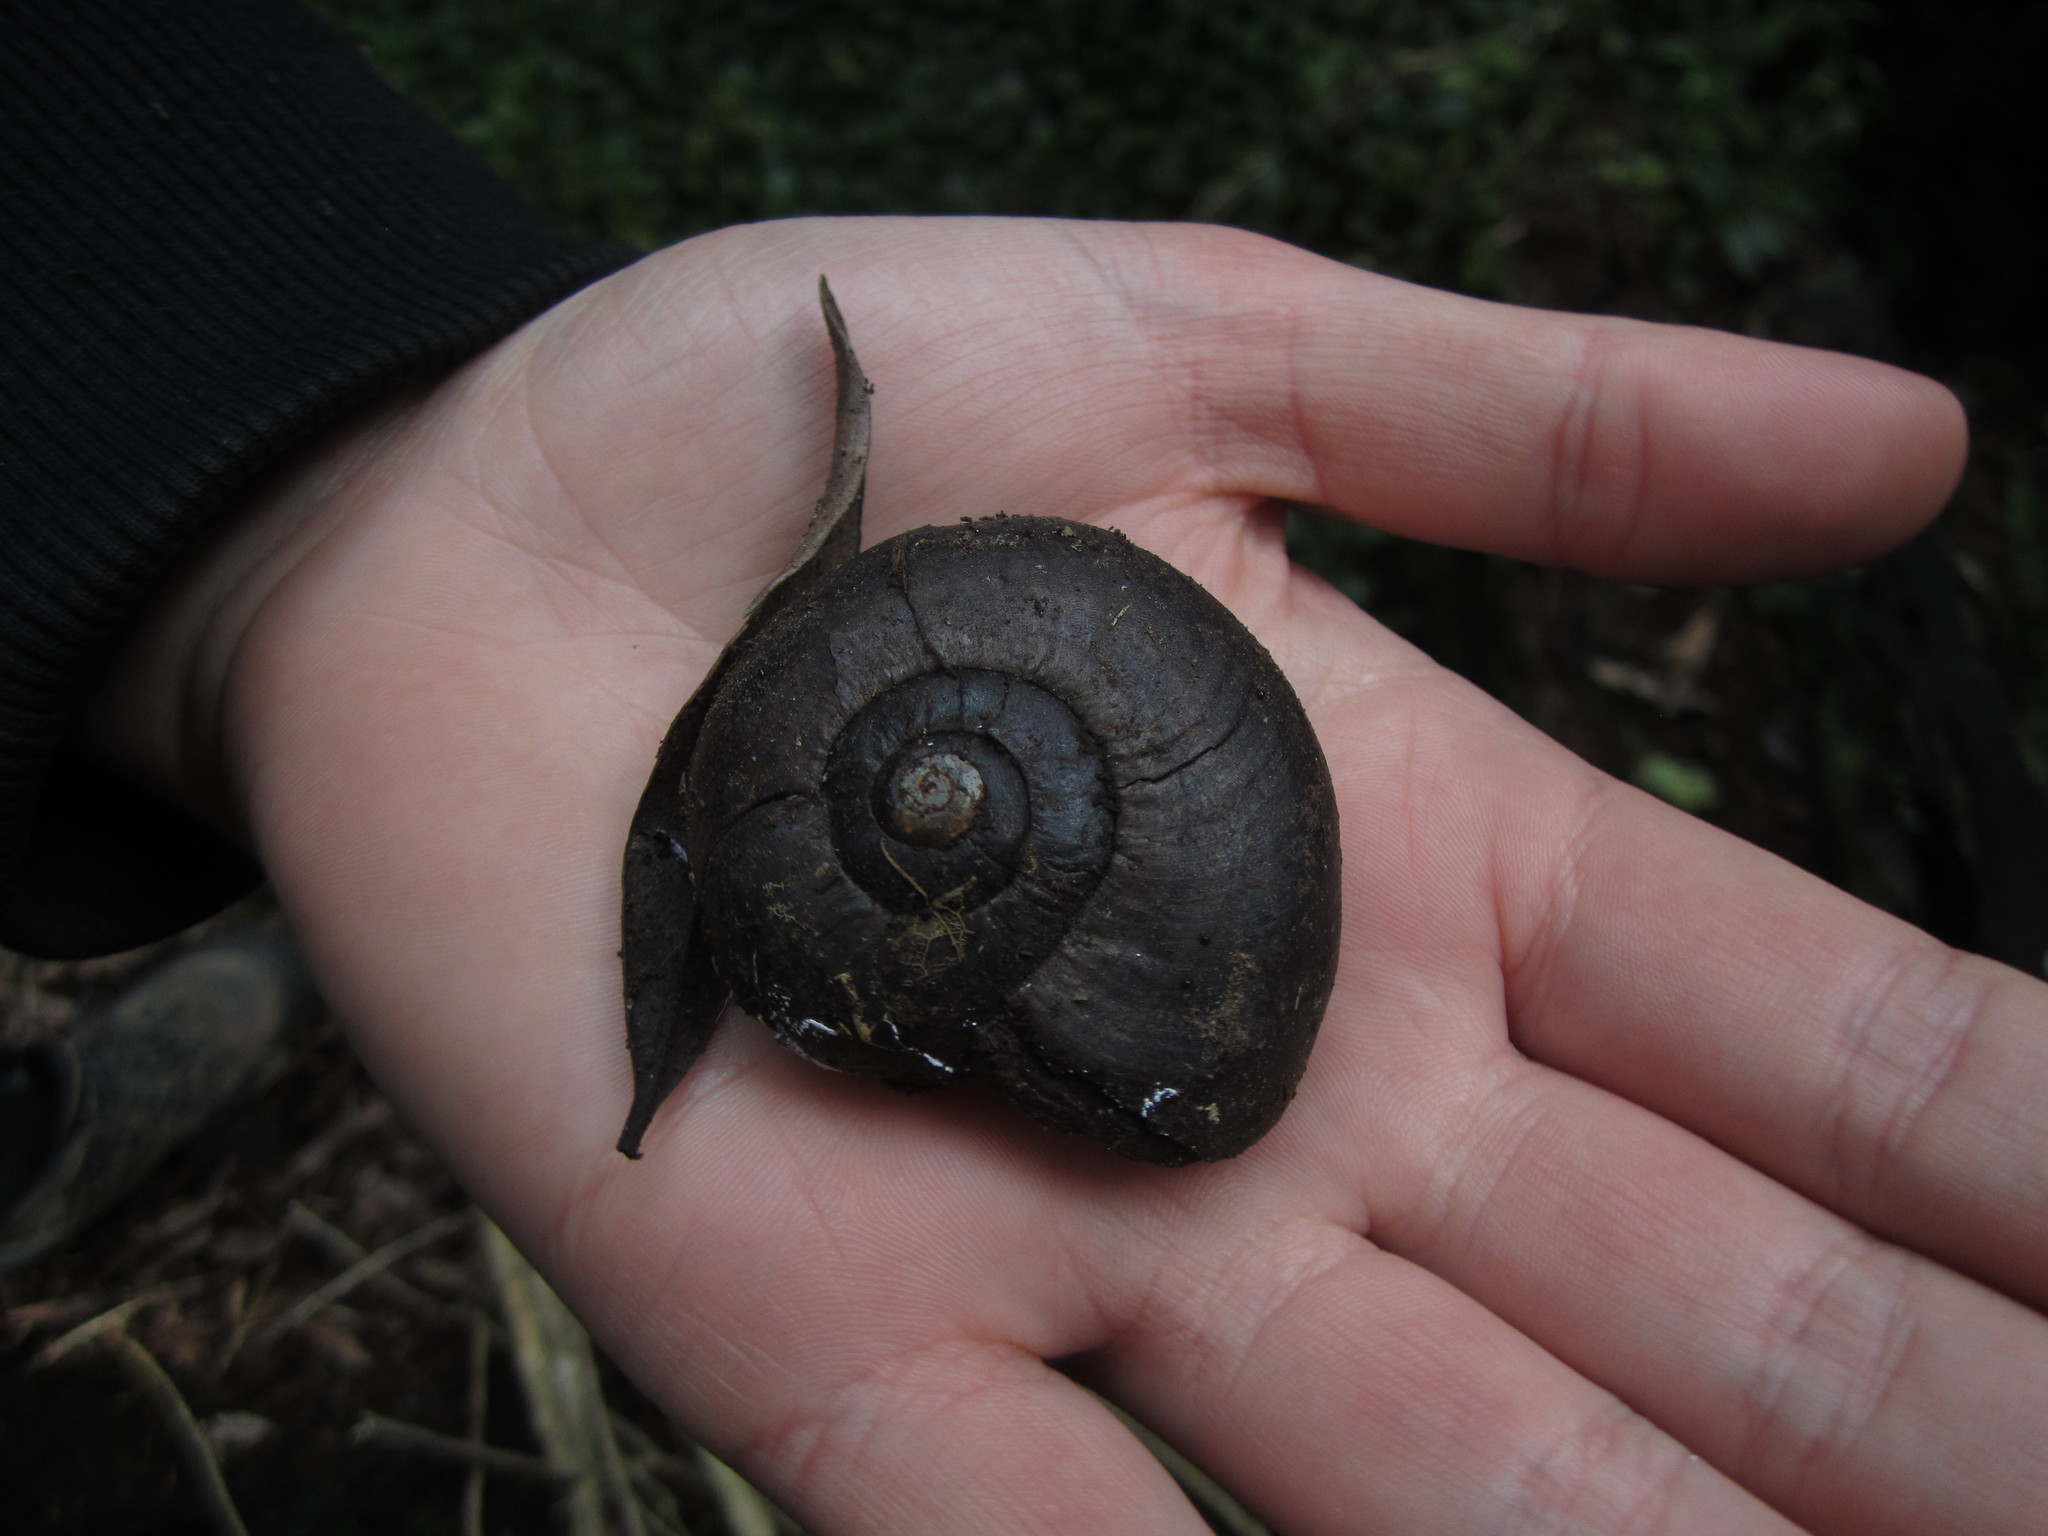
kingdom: Animalia
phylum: Mollusca
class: Gastropoda
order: Stylommatophora
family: Rhytididae
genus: Powelliphanta
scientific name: Powelliphanta traversi
